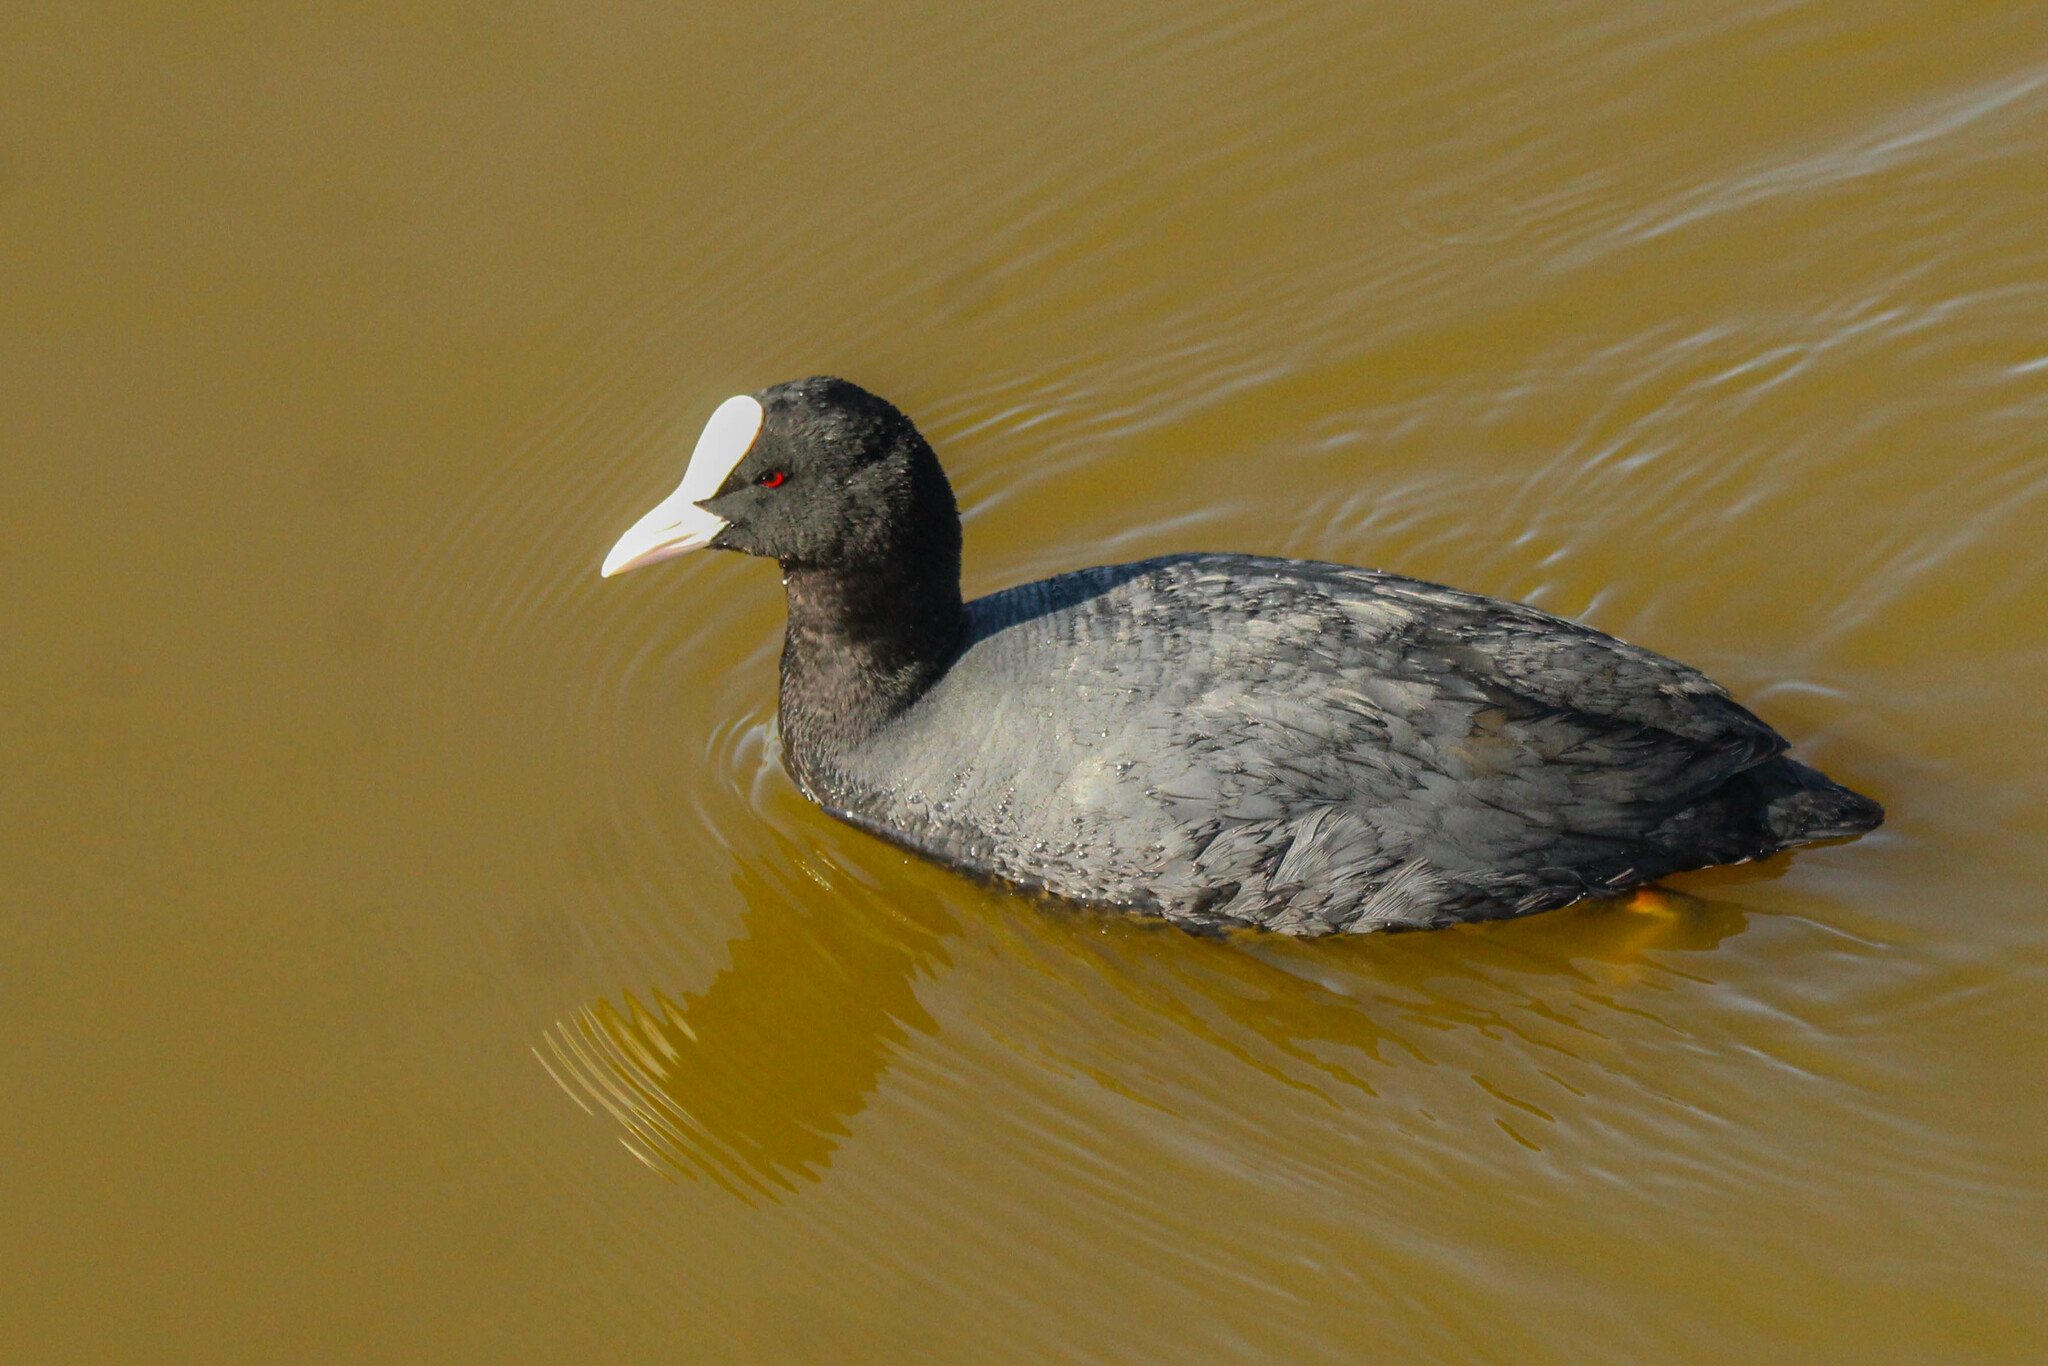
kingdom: Animalia
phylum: Chordata
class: Aves
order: Gruiformes
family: Rallidae
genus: Fulica
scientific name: Fulica atra
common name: Eurasian coot
